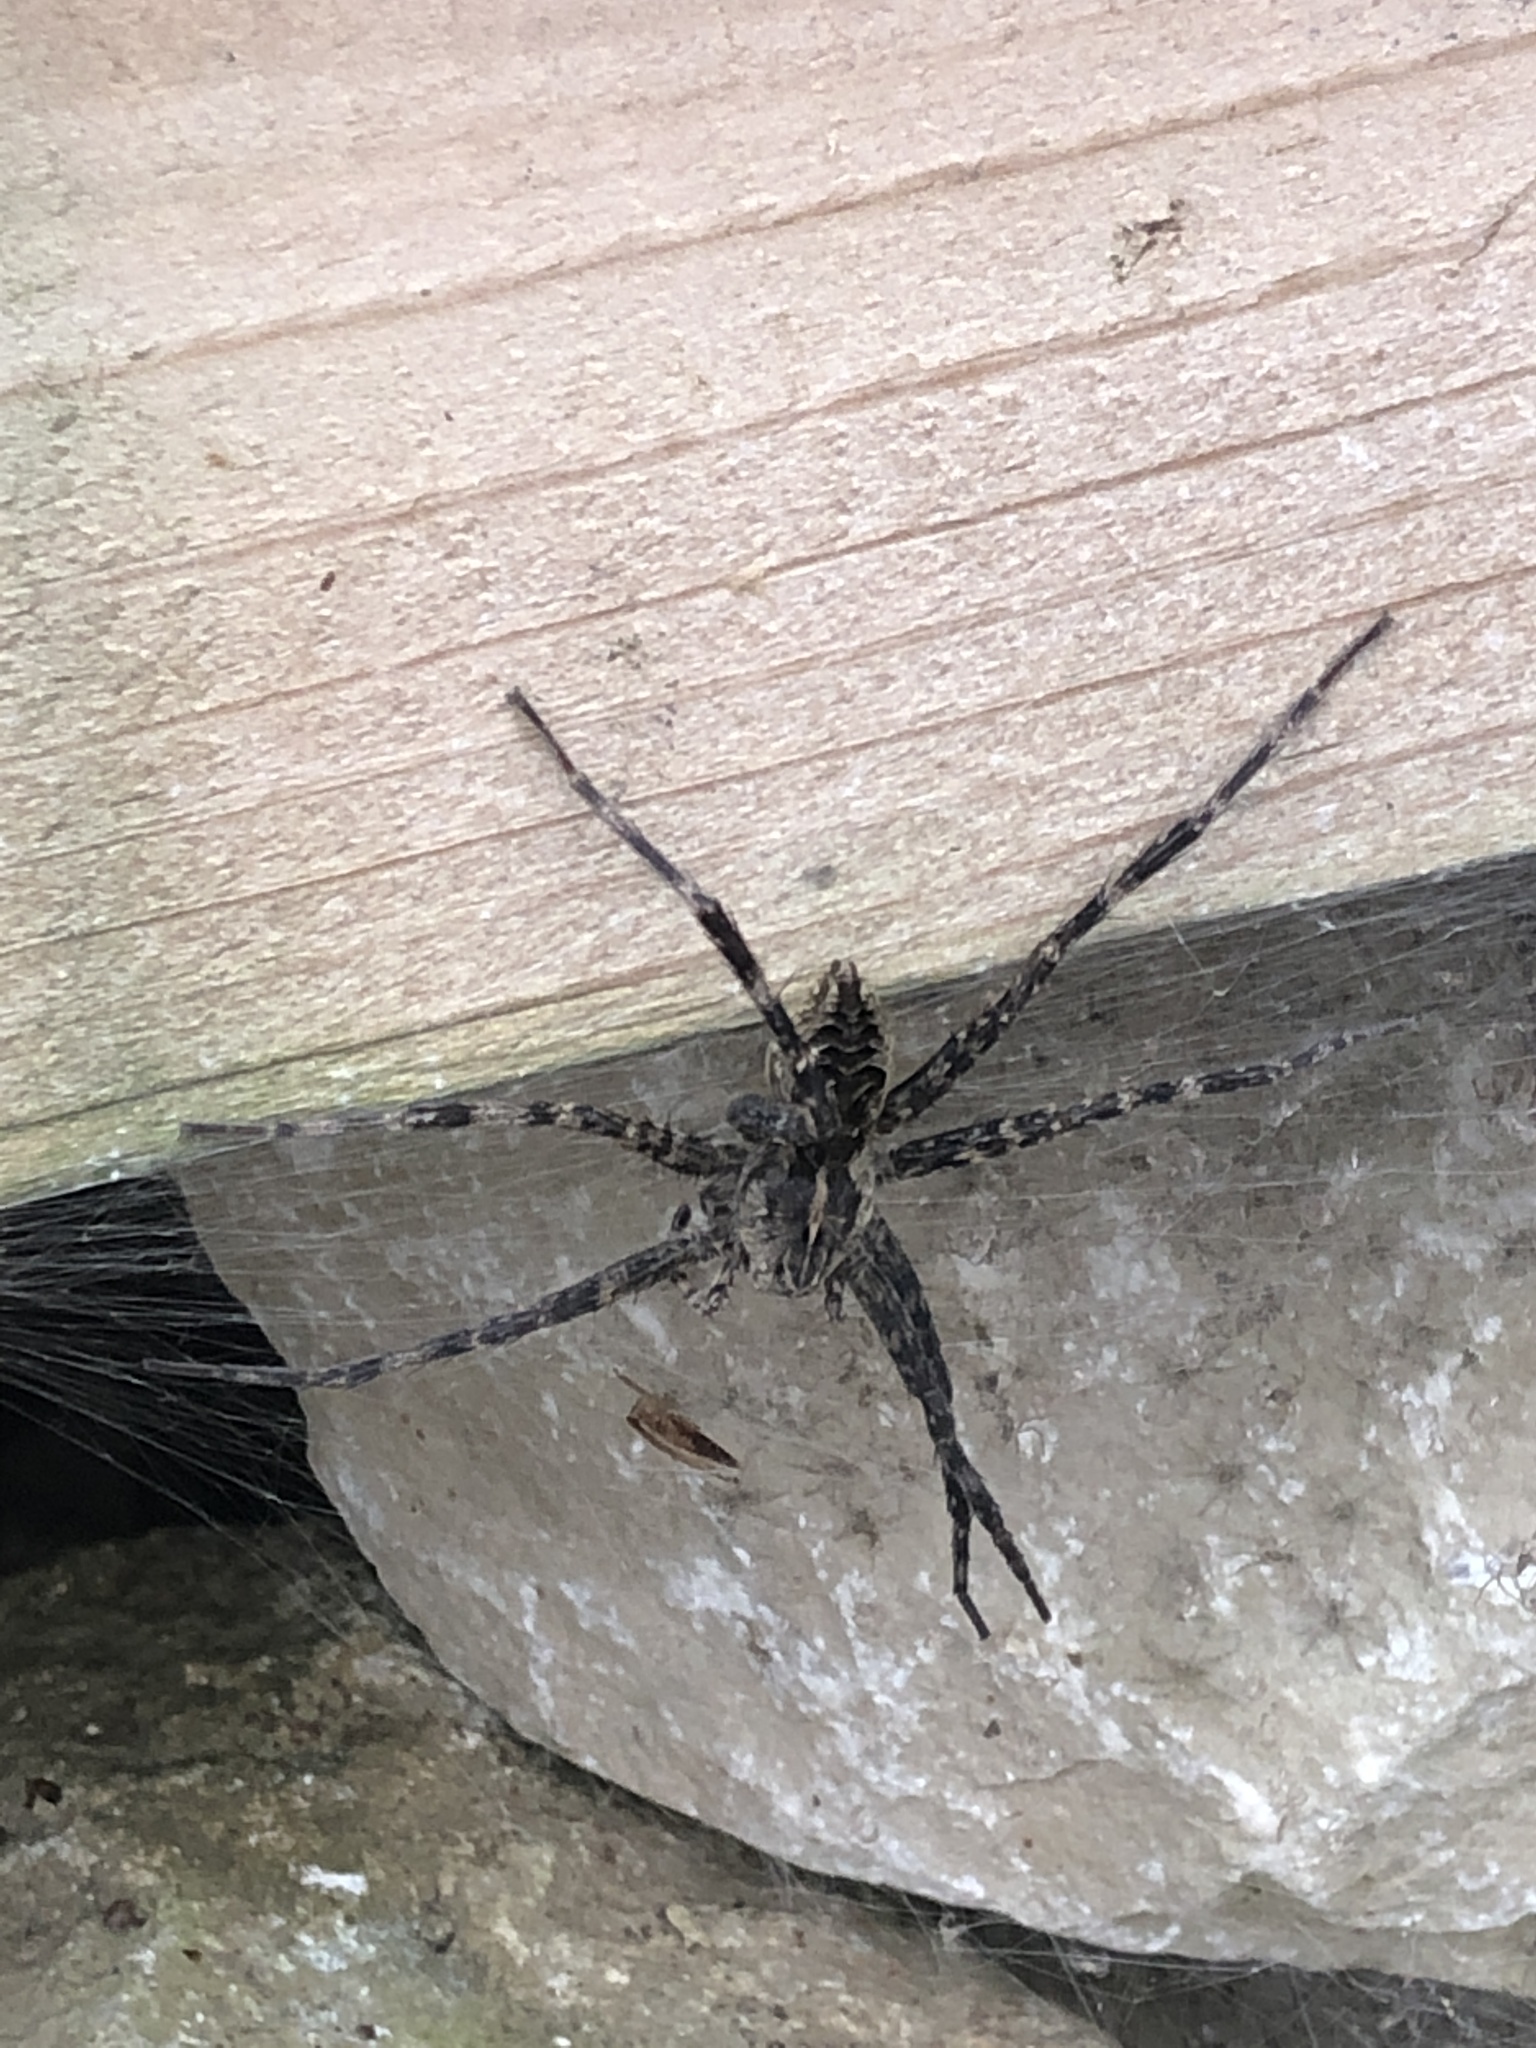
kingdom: Animalia
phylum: Arthropoda
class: Arachnida
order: Araneae
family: Pisauridae
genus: Dolomedes
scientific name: Dolomedes scriptus
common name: Striped fishing spider
